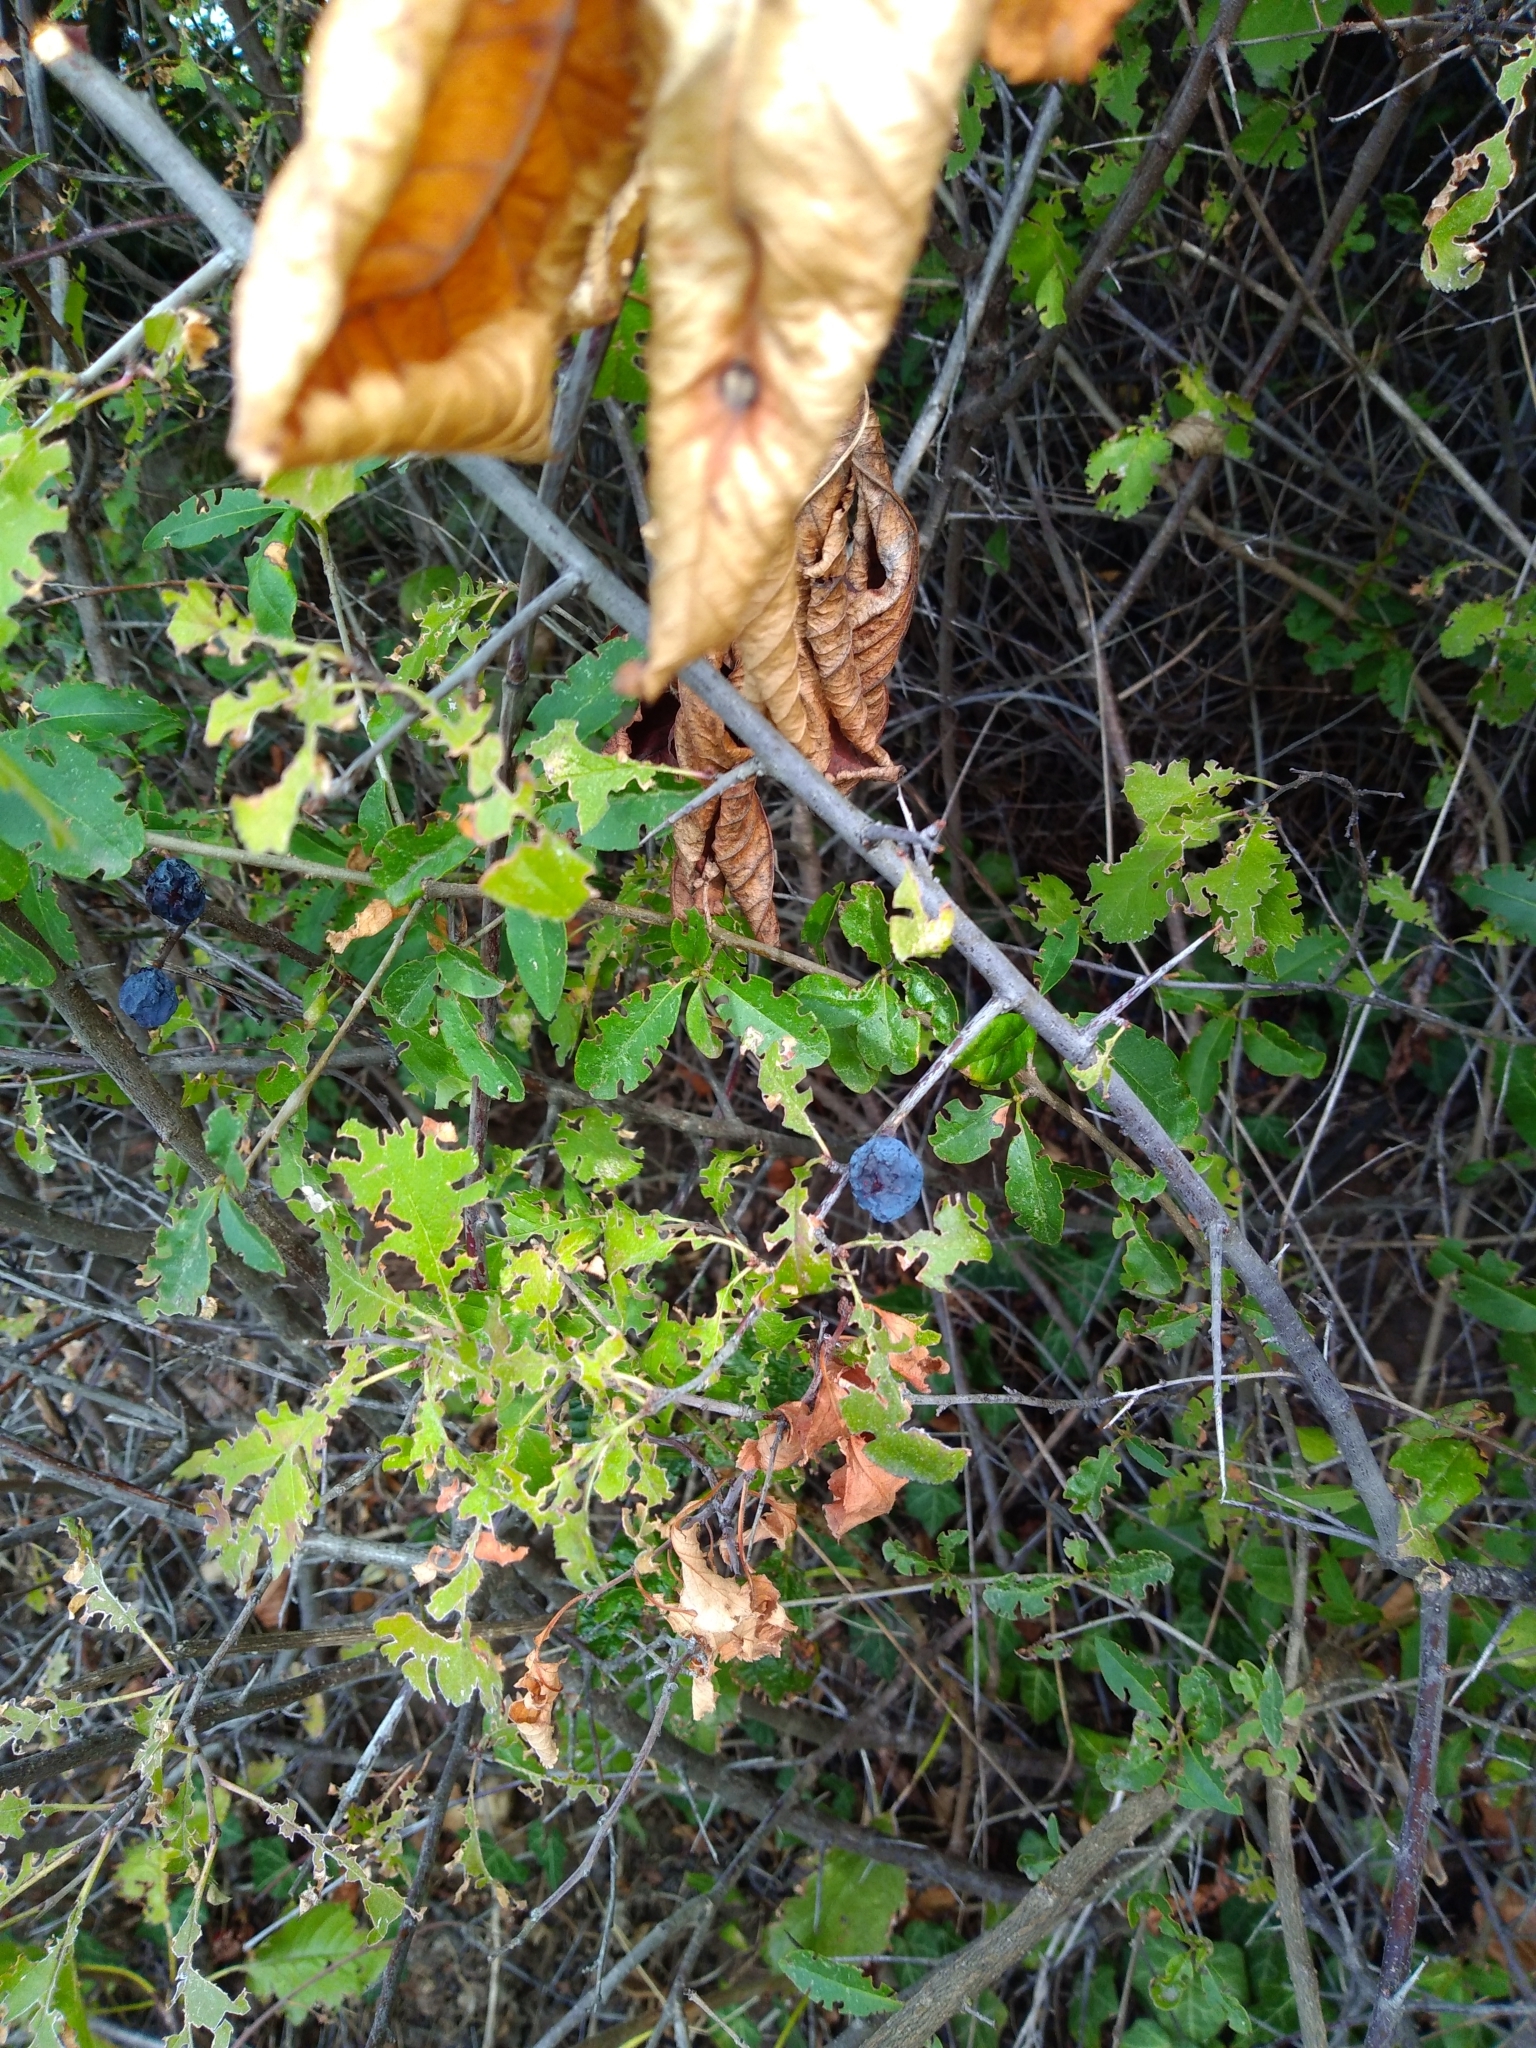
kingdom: Plantae
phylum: Tracheophyta
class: Magnoliopsida
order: Rosales
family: Rosaceae
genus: Prunus
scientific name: Prunus spinosa
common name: Blackthorn
